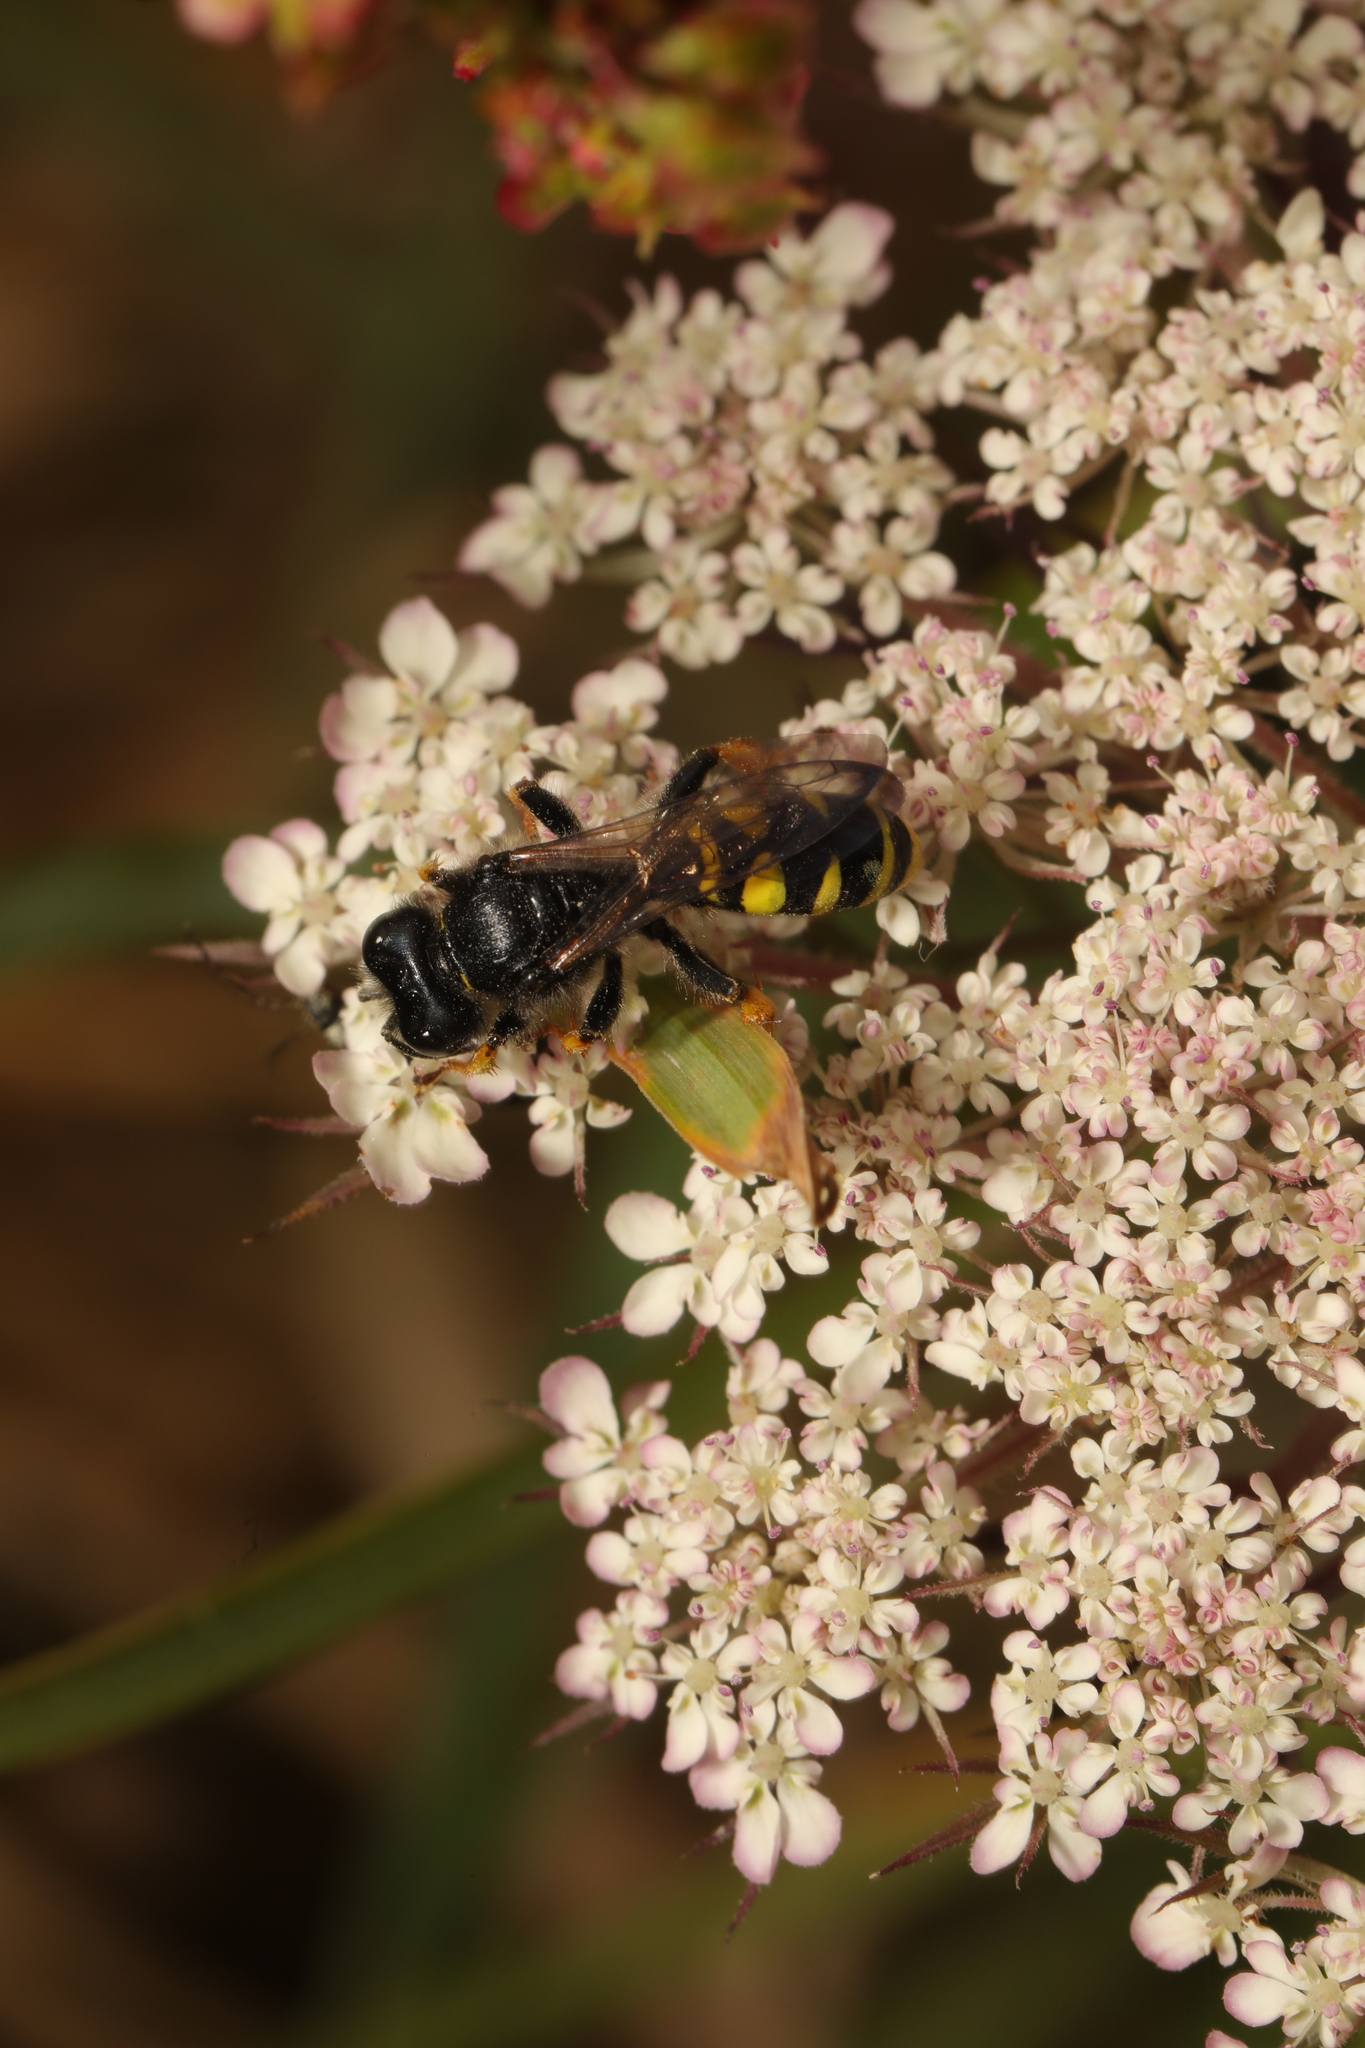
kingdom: Animalia
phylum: Arthropoda
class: Insecta
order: Hymenoptera
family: Crabronidae
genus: Crabro
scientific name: Crabro cribrarius
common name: Slender bodied digger wasp
